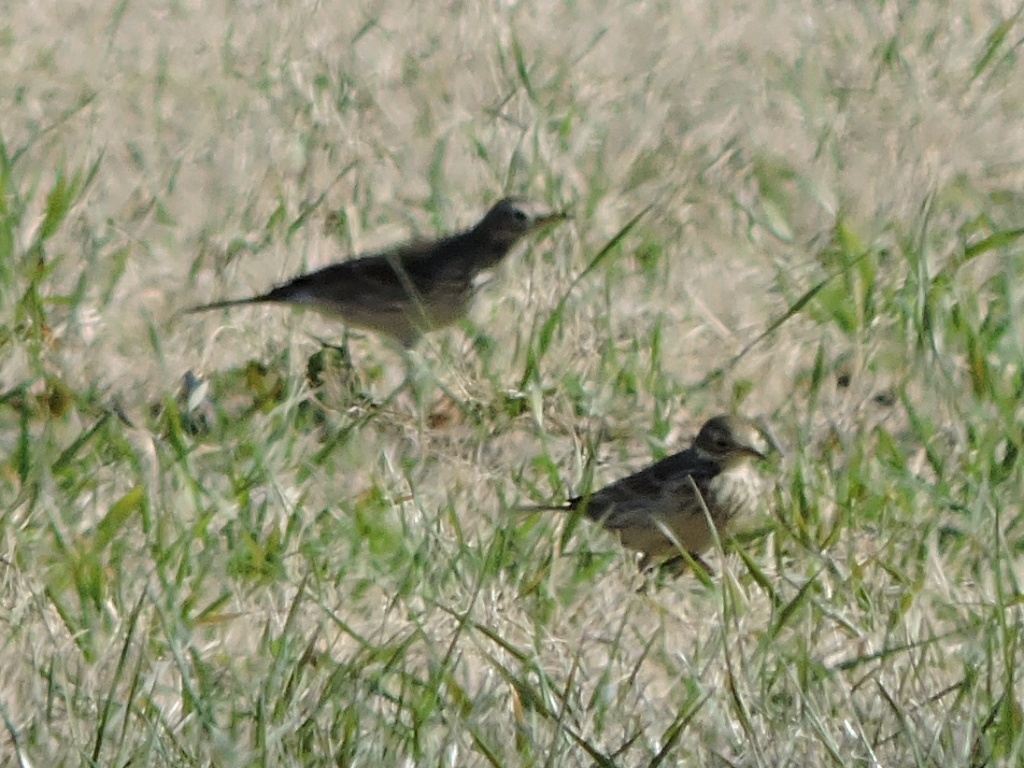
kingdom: Animalia
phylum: Chordata
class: Aves
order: Passeriformes
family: Motacillidae
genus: Anthus
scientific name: Anthus rubescens
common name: Buff-bellied pipit
